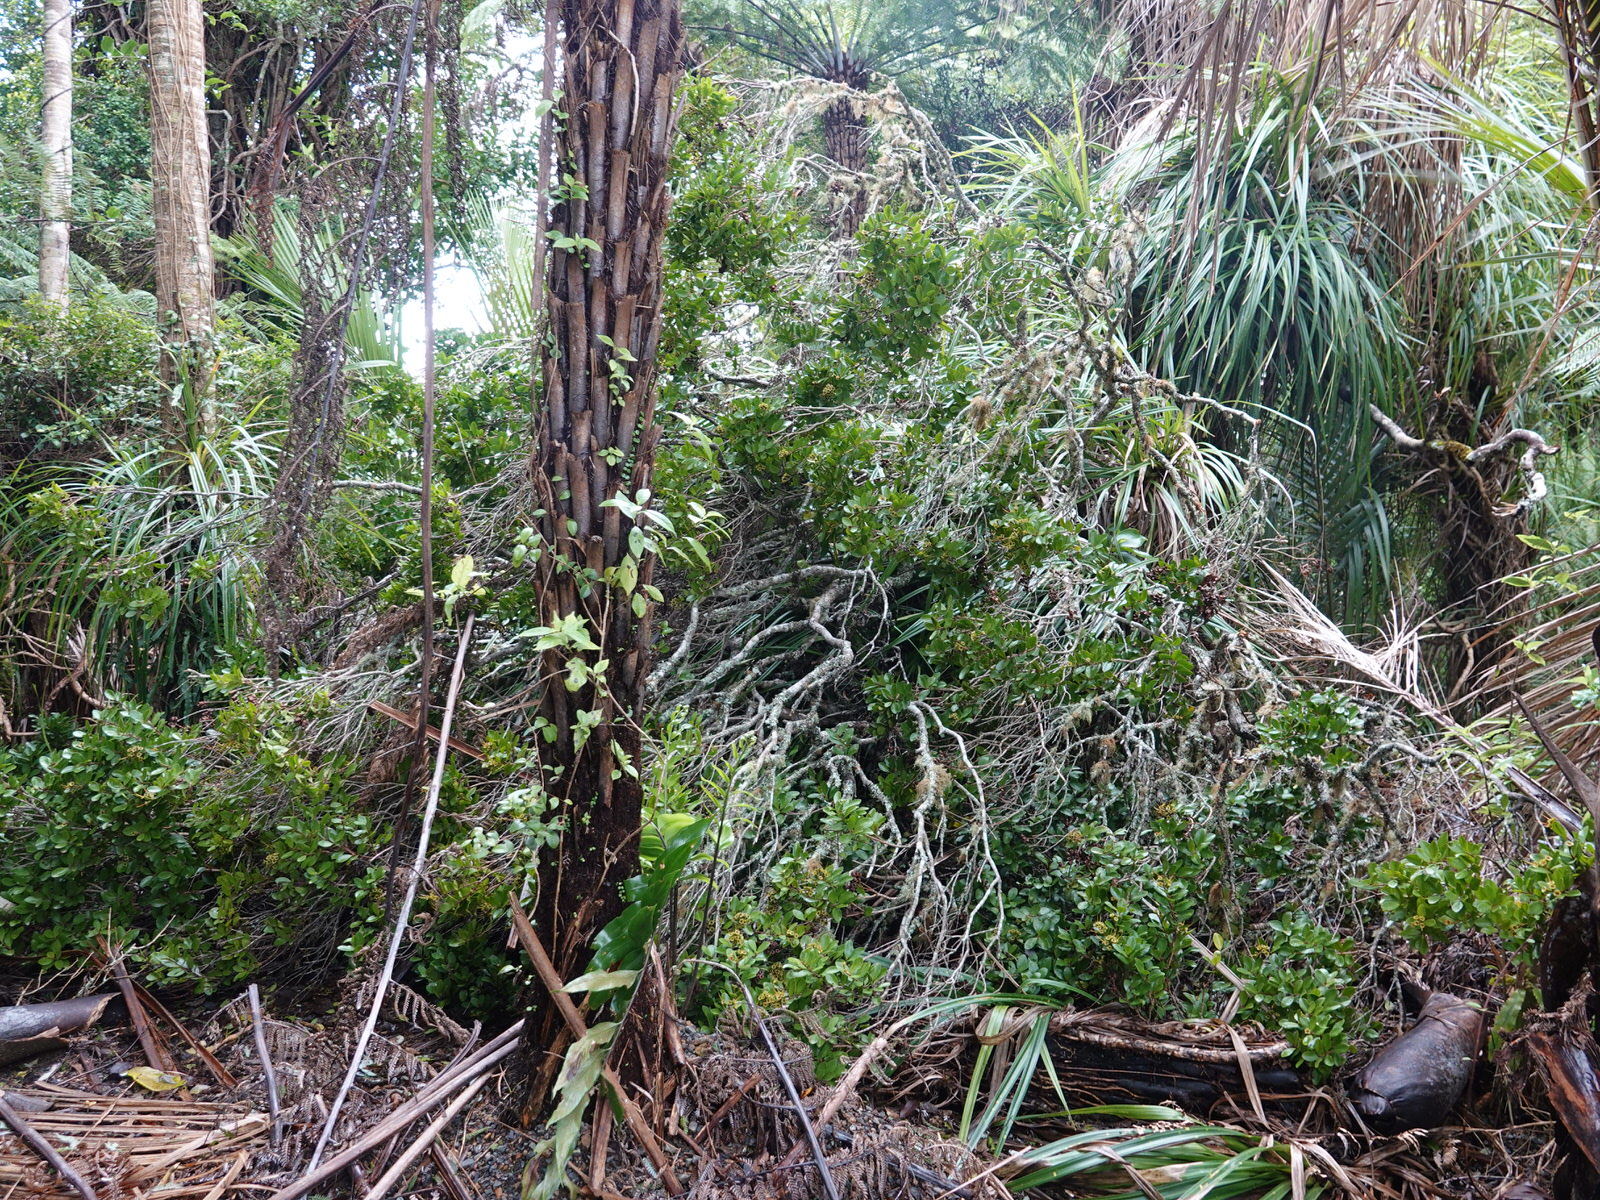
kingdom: Plantae
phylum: Tracheophyta
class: Magnoliopsida
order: Myrtales
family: Myrtaceae
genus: Metrosideros
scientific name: Metrosideros fulgens
